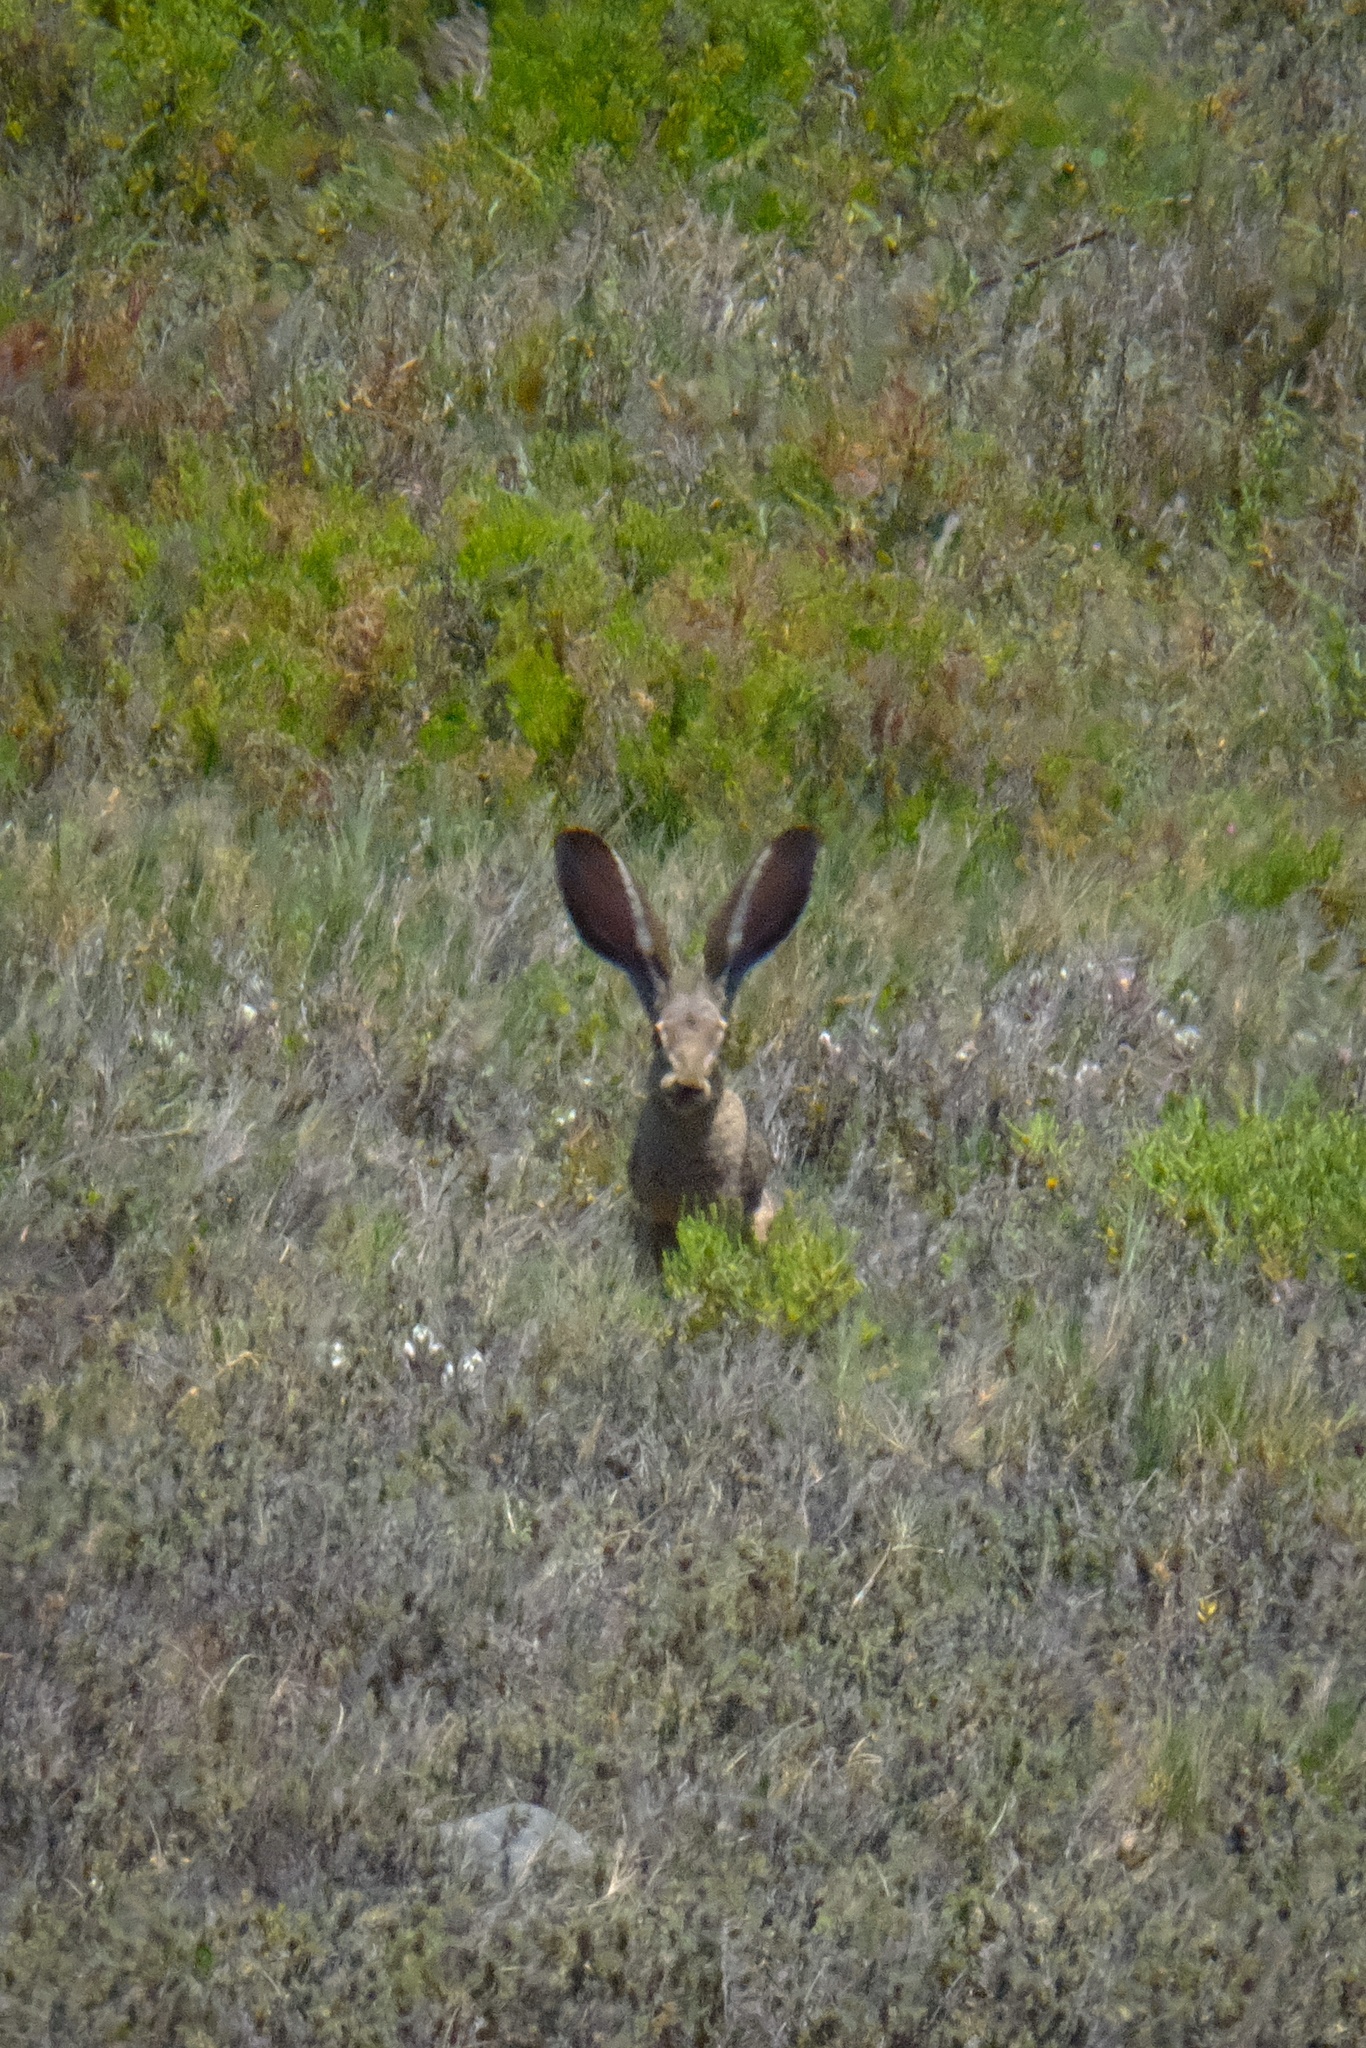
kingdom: Animalia
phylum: Chordata
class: Mammalia
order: Lagomorpha
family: Leporidae
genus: Lepus
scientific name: Lepus californicus
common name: Black-tailed jackrabbit
